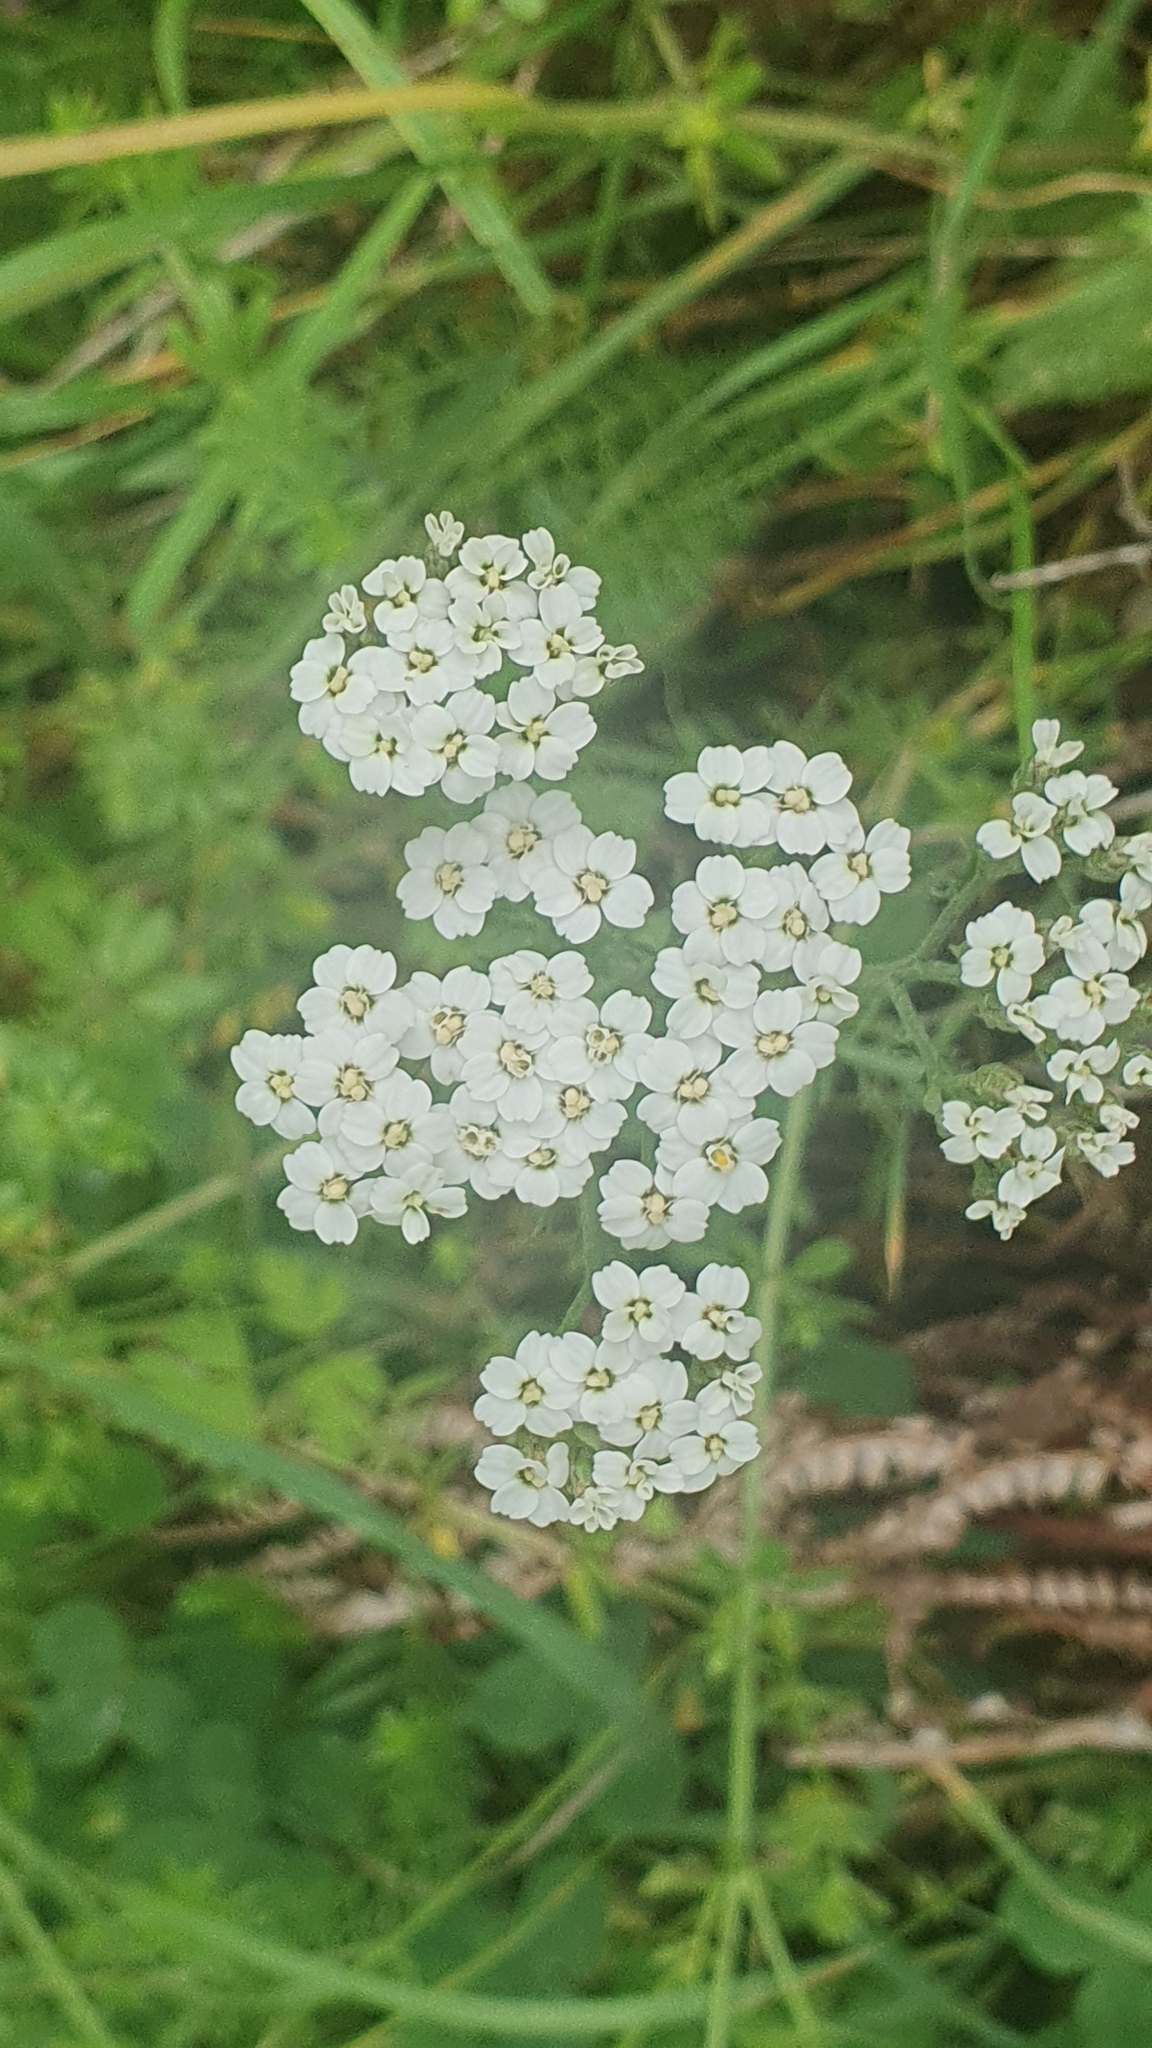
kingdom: Plantae
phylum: Tracheophyta
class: Magnoliopsida
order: Asterales
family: Asteraceae
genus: Achillea
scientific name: Achillea millefolium
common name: Yarrow
